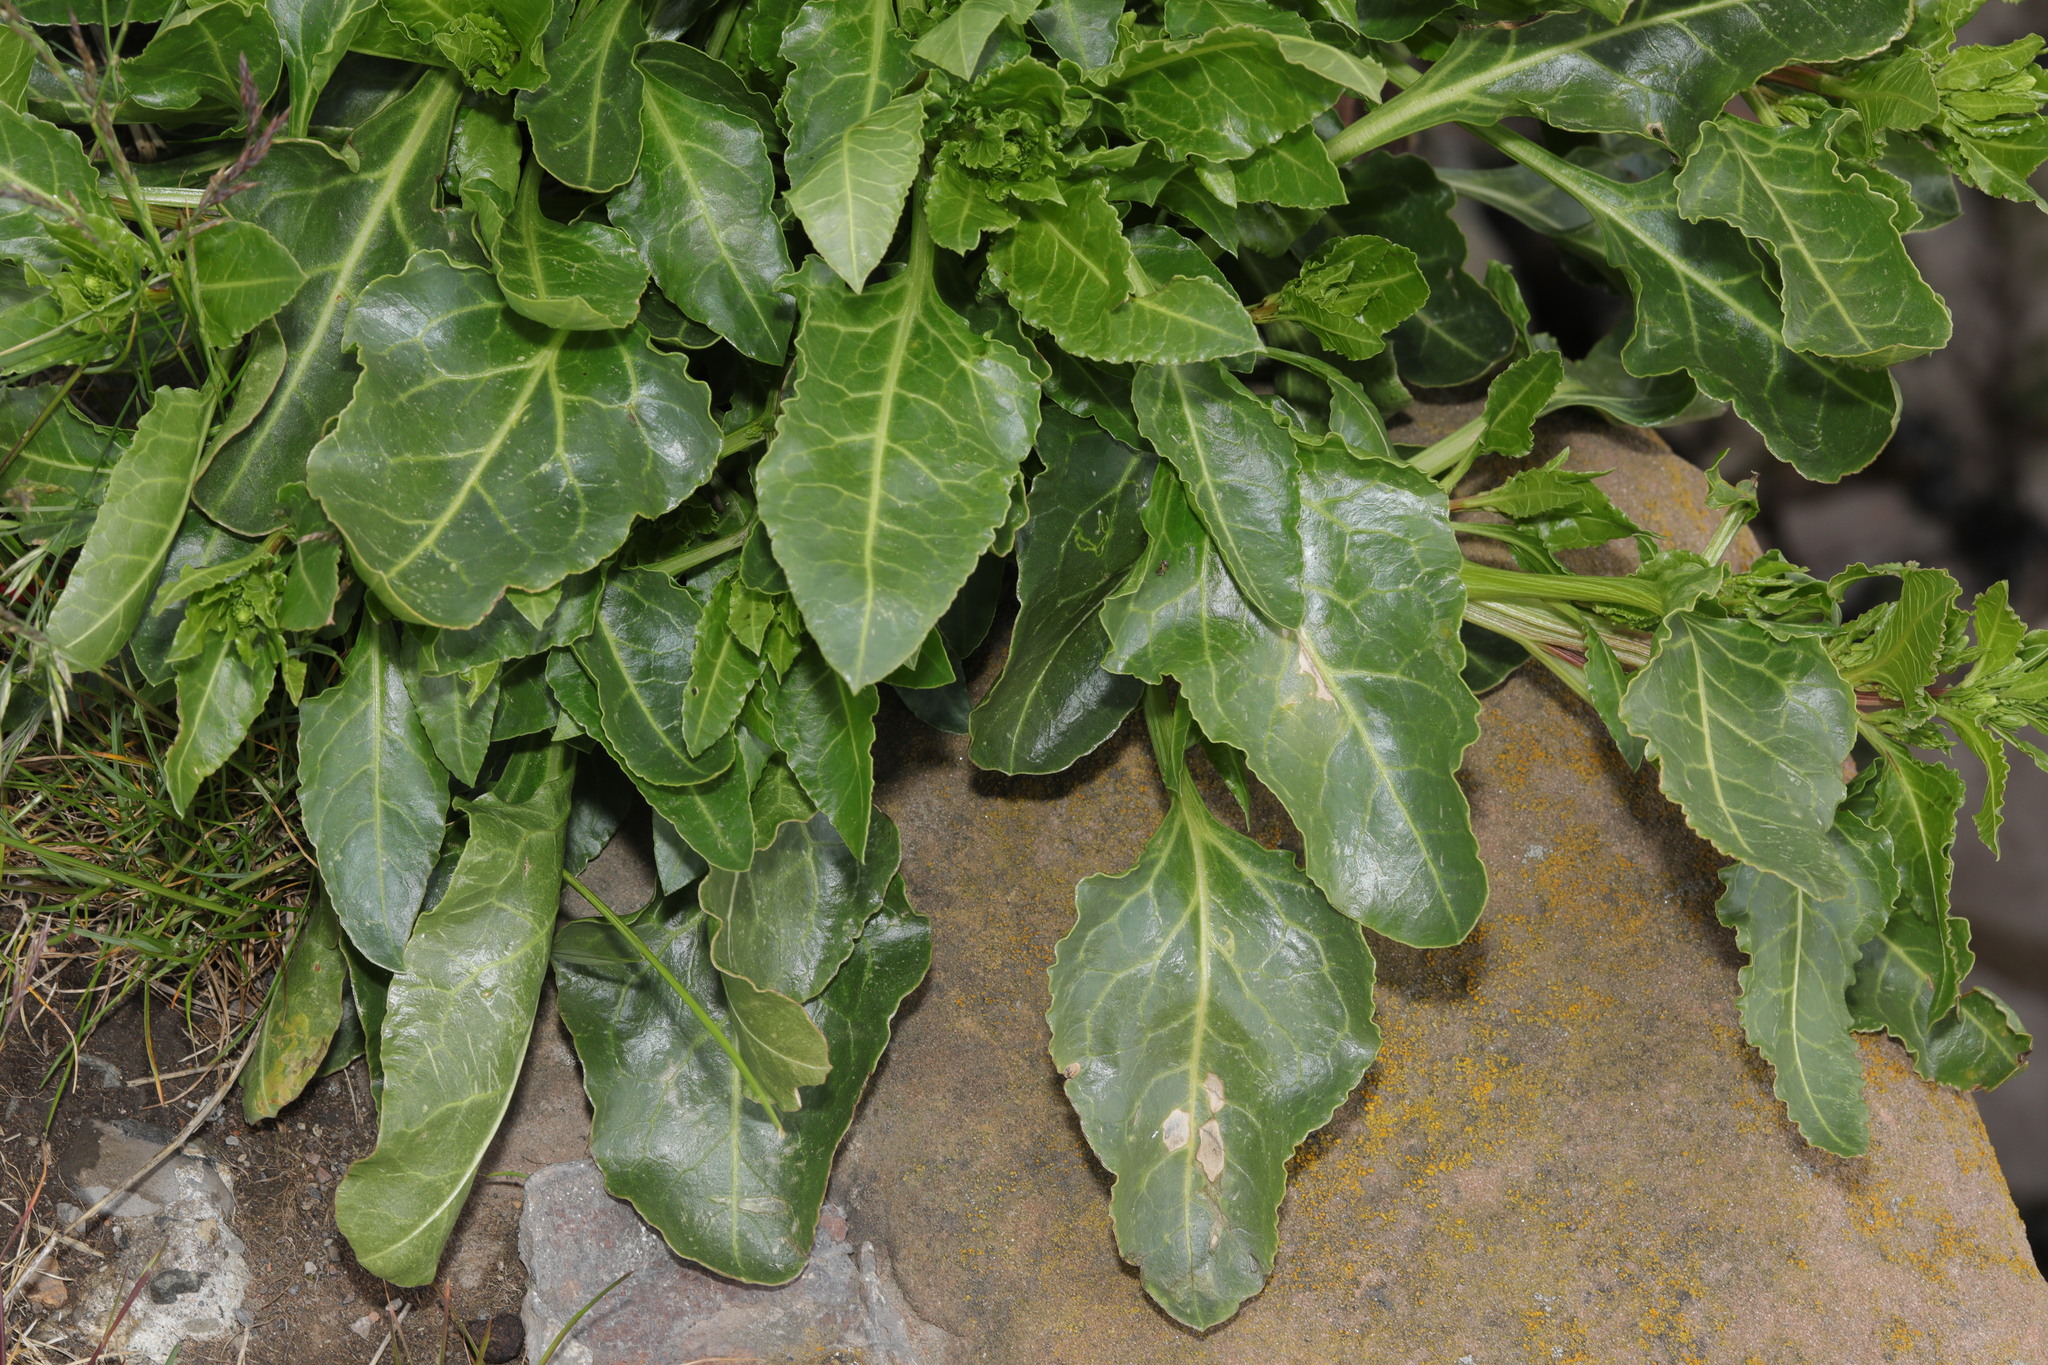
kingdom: Plantae
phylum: Tracheophyta
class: Magnoliopsida
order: Caryophyllales
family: Amaranthaceae
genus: Beta
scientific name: Beta vulgaris
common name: Beet
